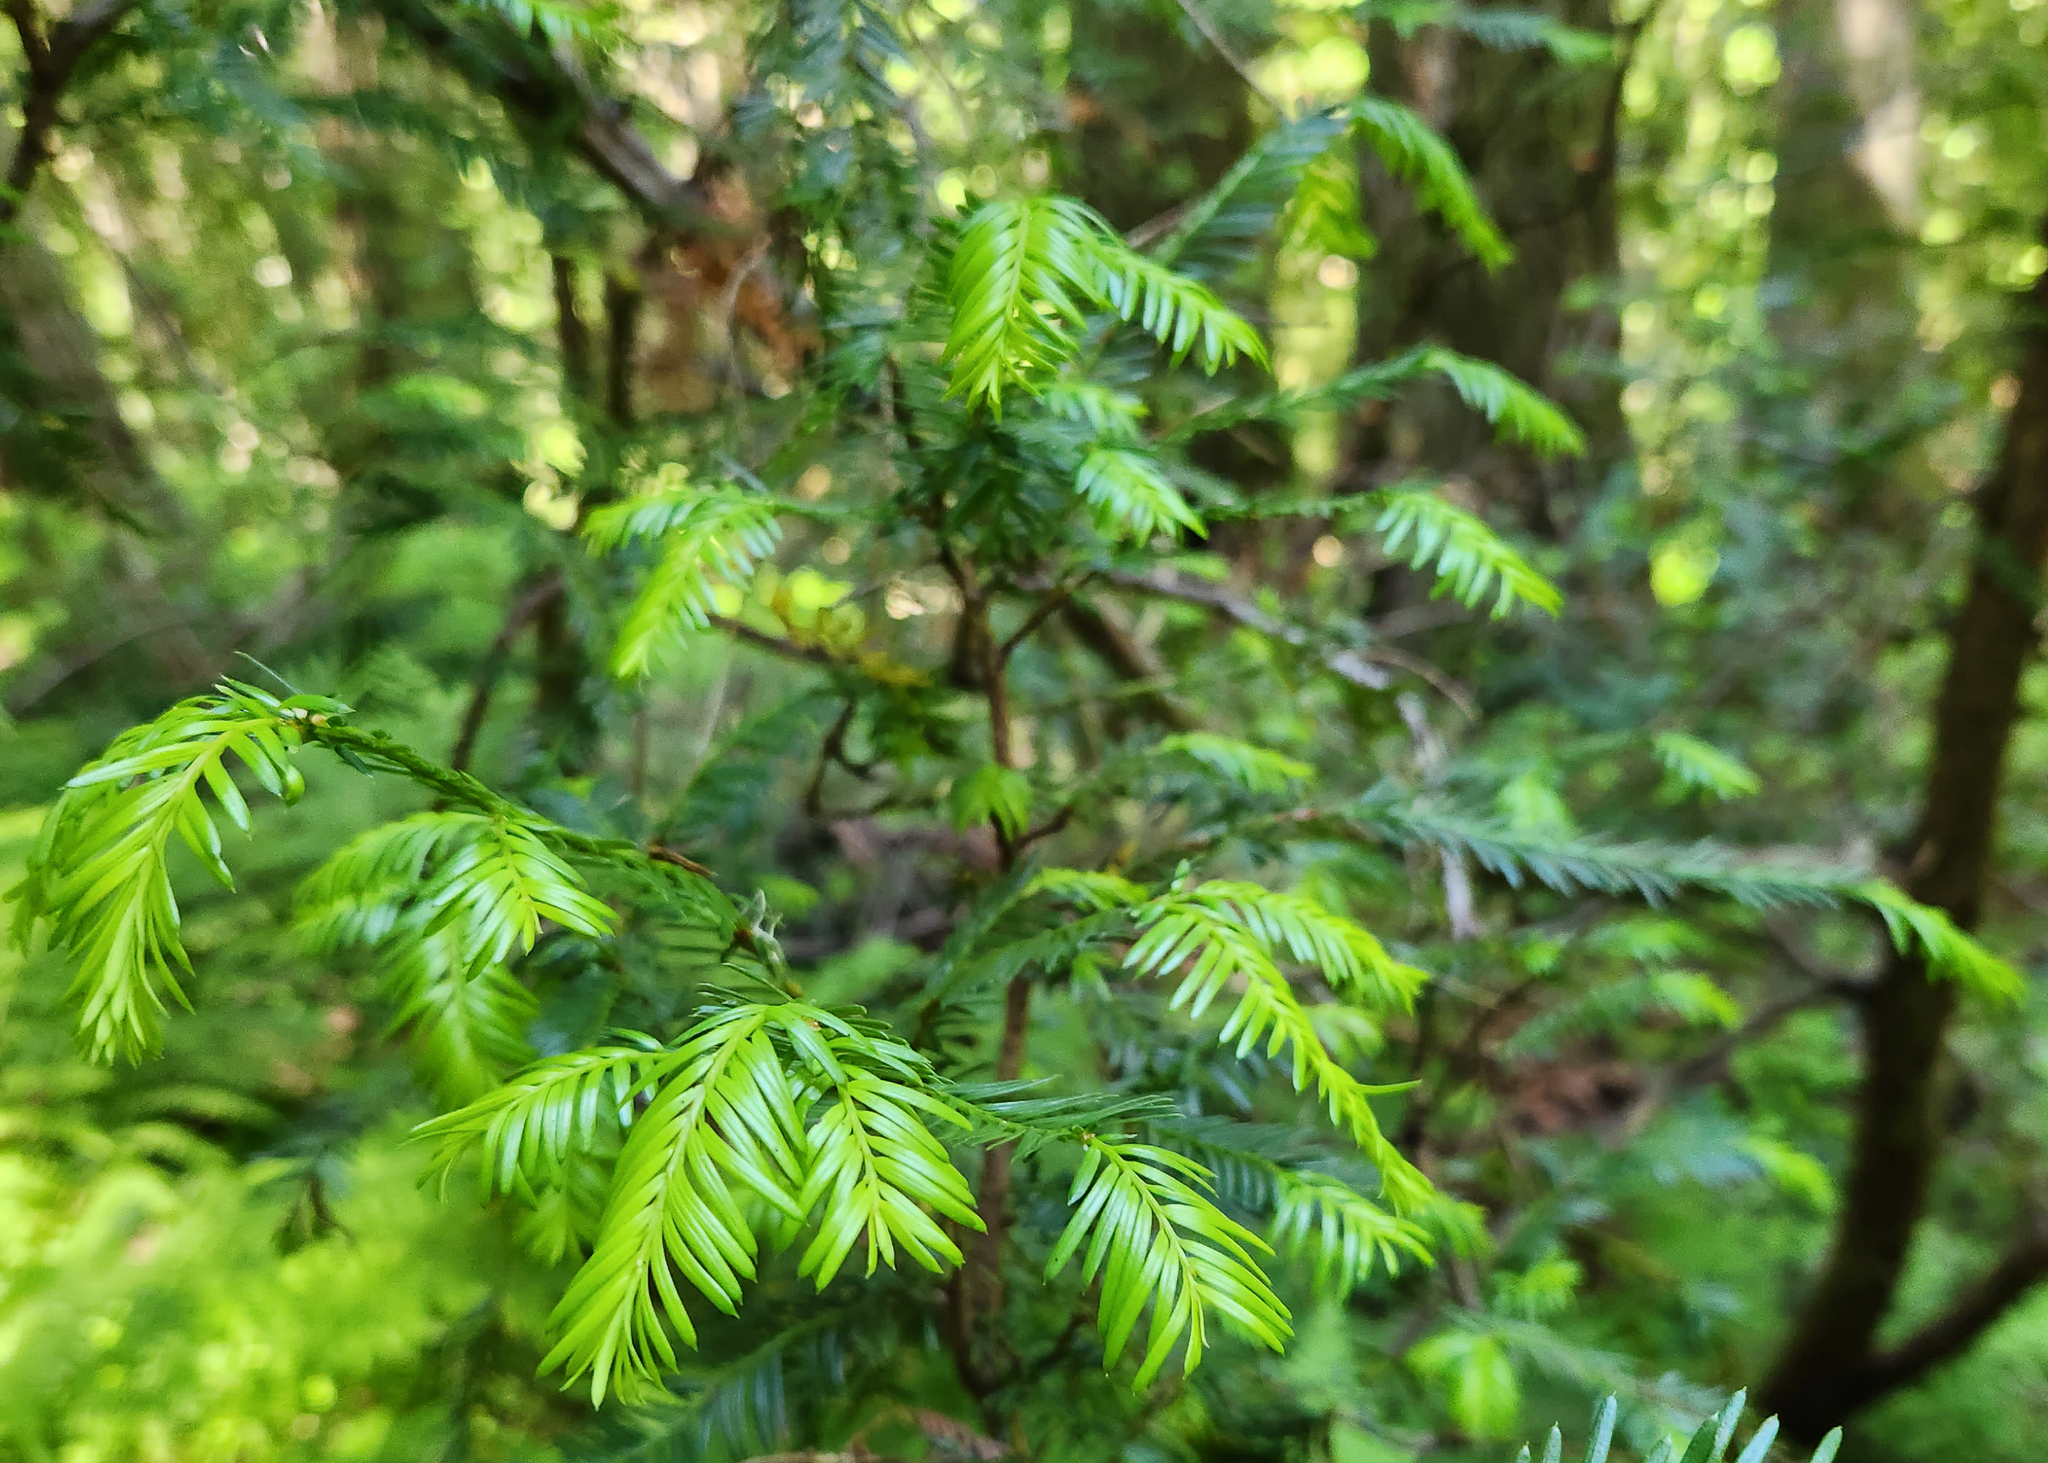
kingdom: Plantae
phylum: Tracheophyta
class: Pinopsida
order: Pinales
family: Taxaceae
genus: Taxus
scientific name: Taxus brevifolia
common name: Pacific yew
